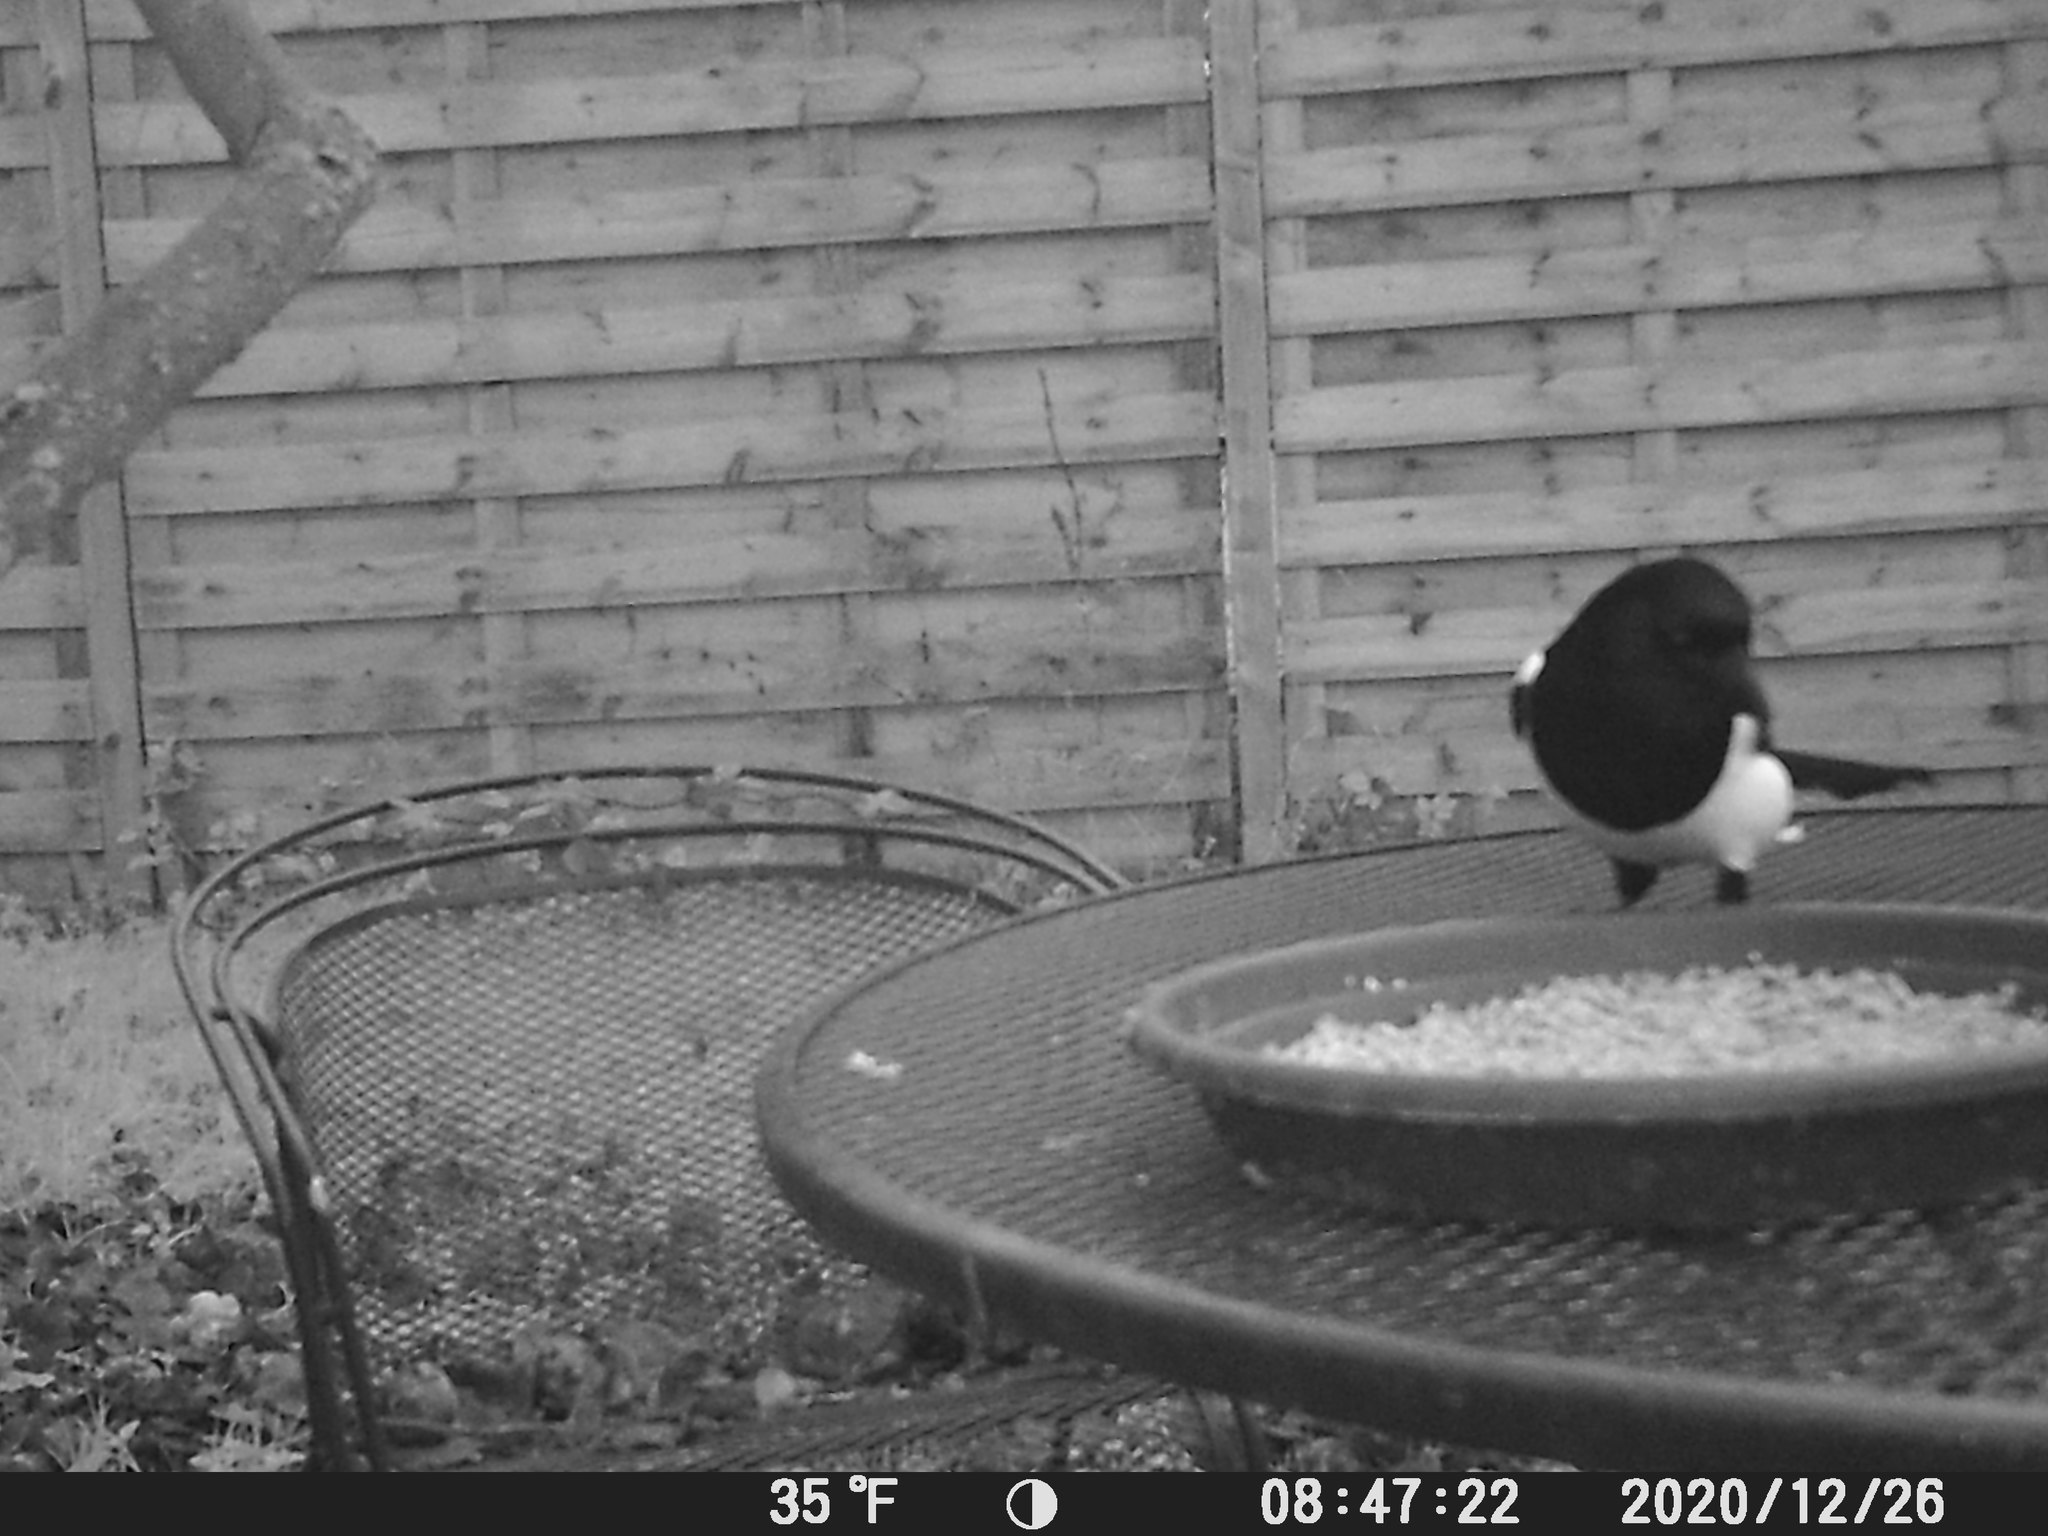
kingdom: Animalia
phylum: Chordata
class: Aves
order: Passeriformes
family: Corvidae
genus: Pica
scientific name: Pica pica
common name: Eurasian magpie
